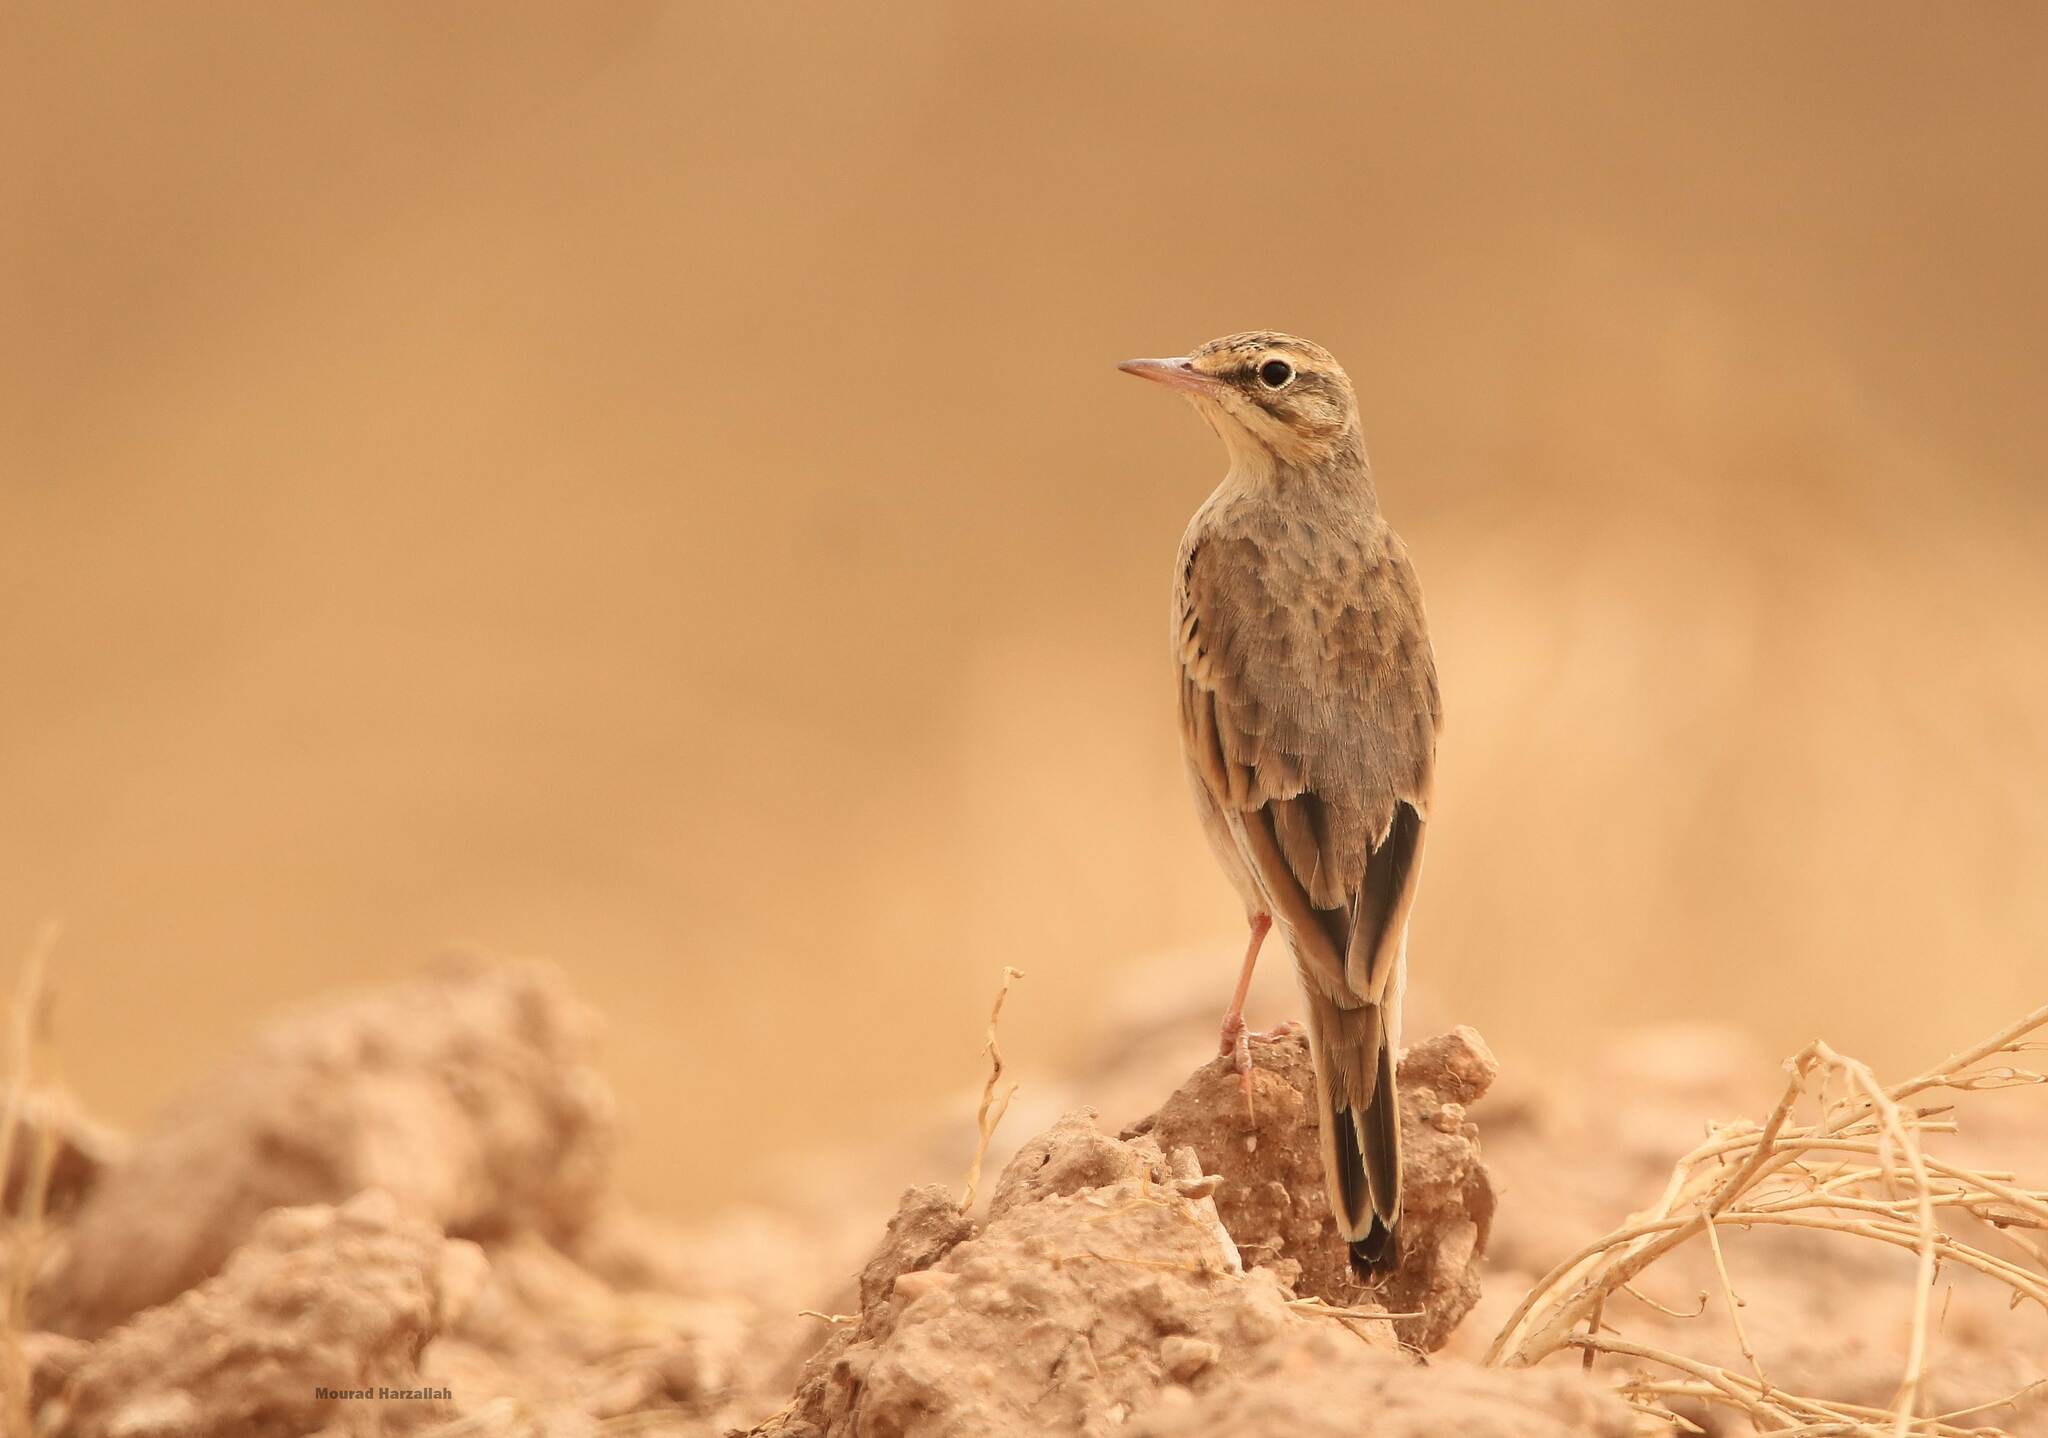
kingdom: Animalia
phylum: Chordata
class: Aves
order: Passeriformes
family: Motacillidae
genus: Anthus
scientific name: Anthus campestris
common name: Tawny pipit
